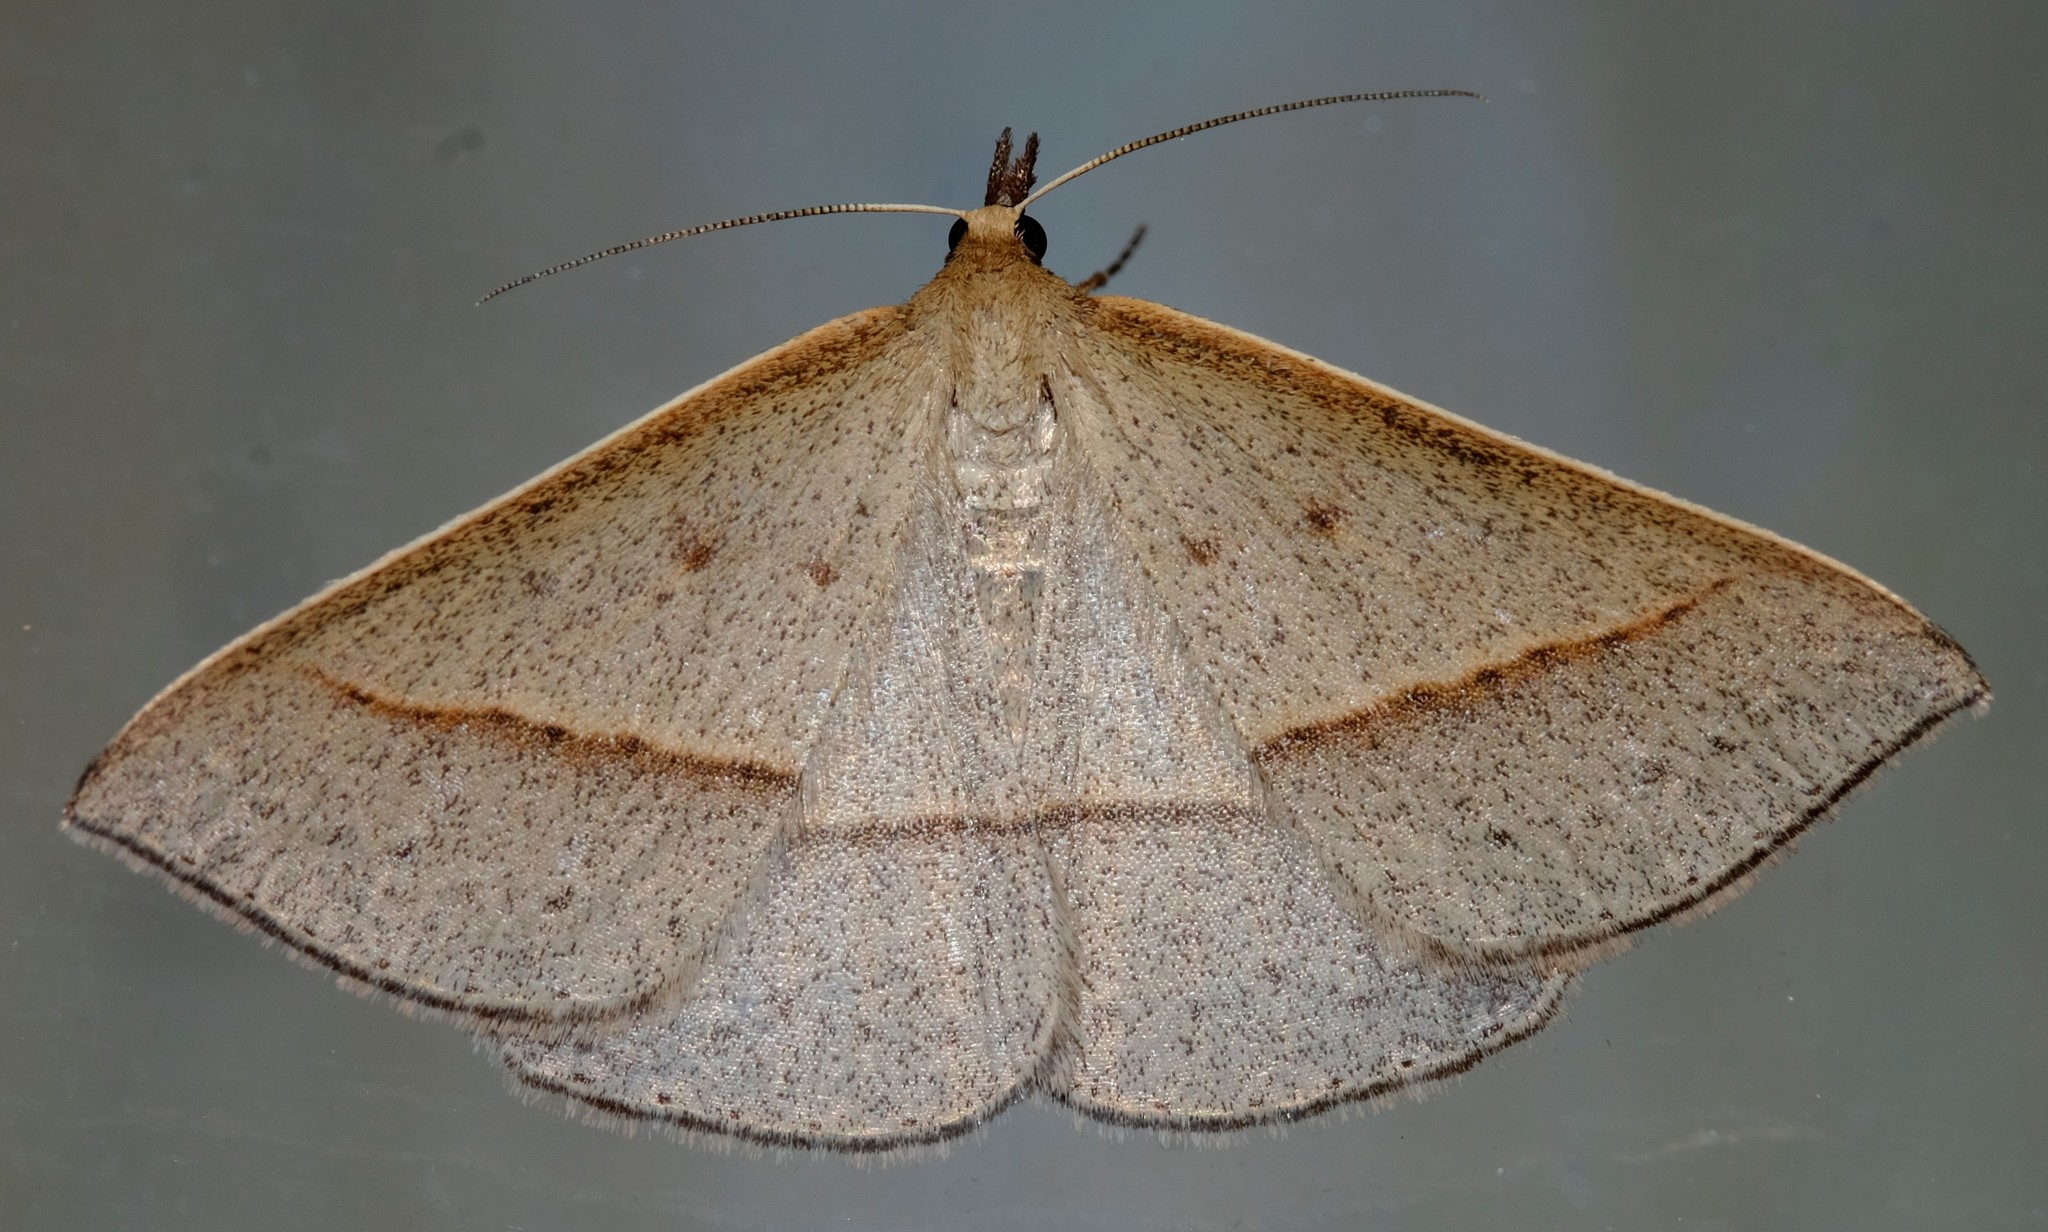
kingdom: Animalia
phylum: Arthropoda
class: Insecta
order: Lepidoptera
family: Geometridae
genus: Epidesmia
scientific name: Epidesmia tryxaria
